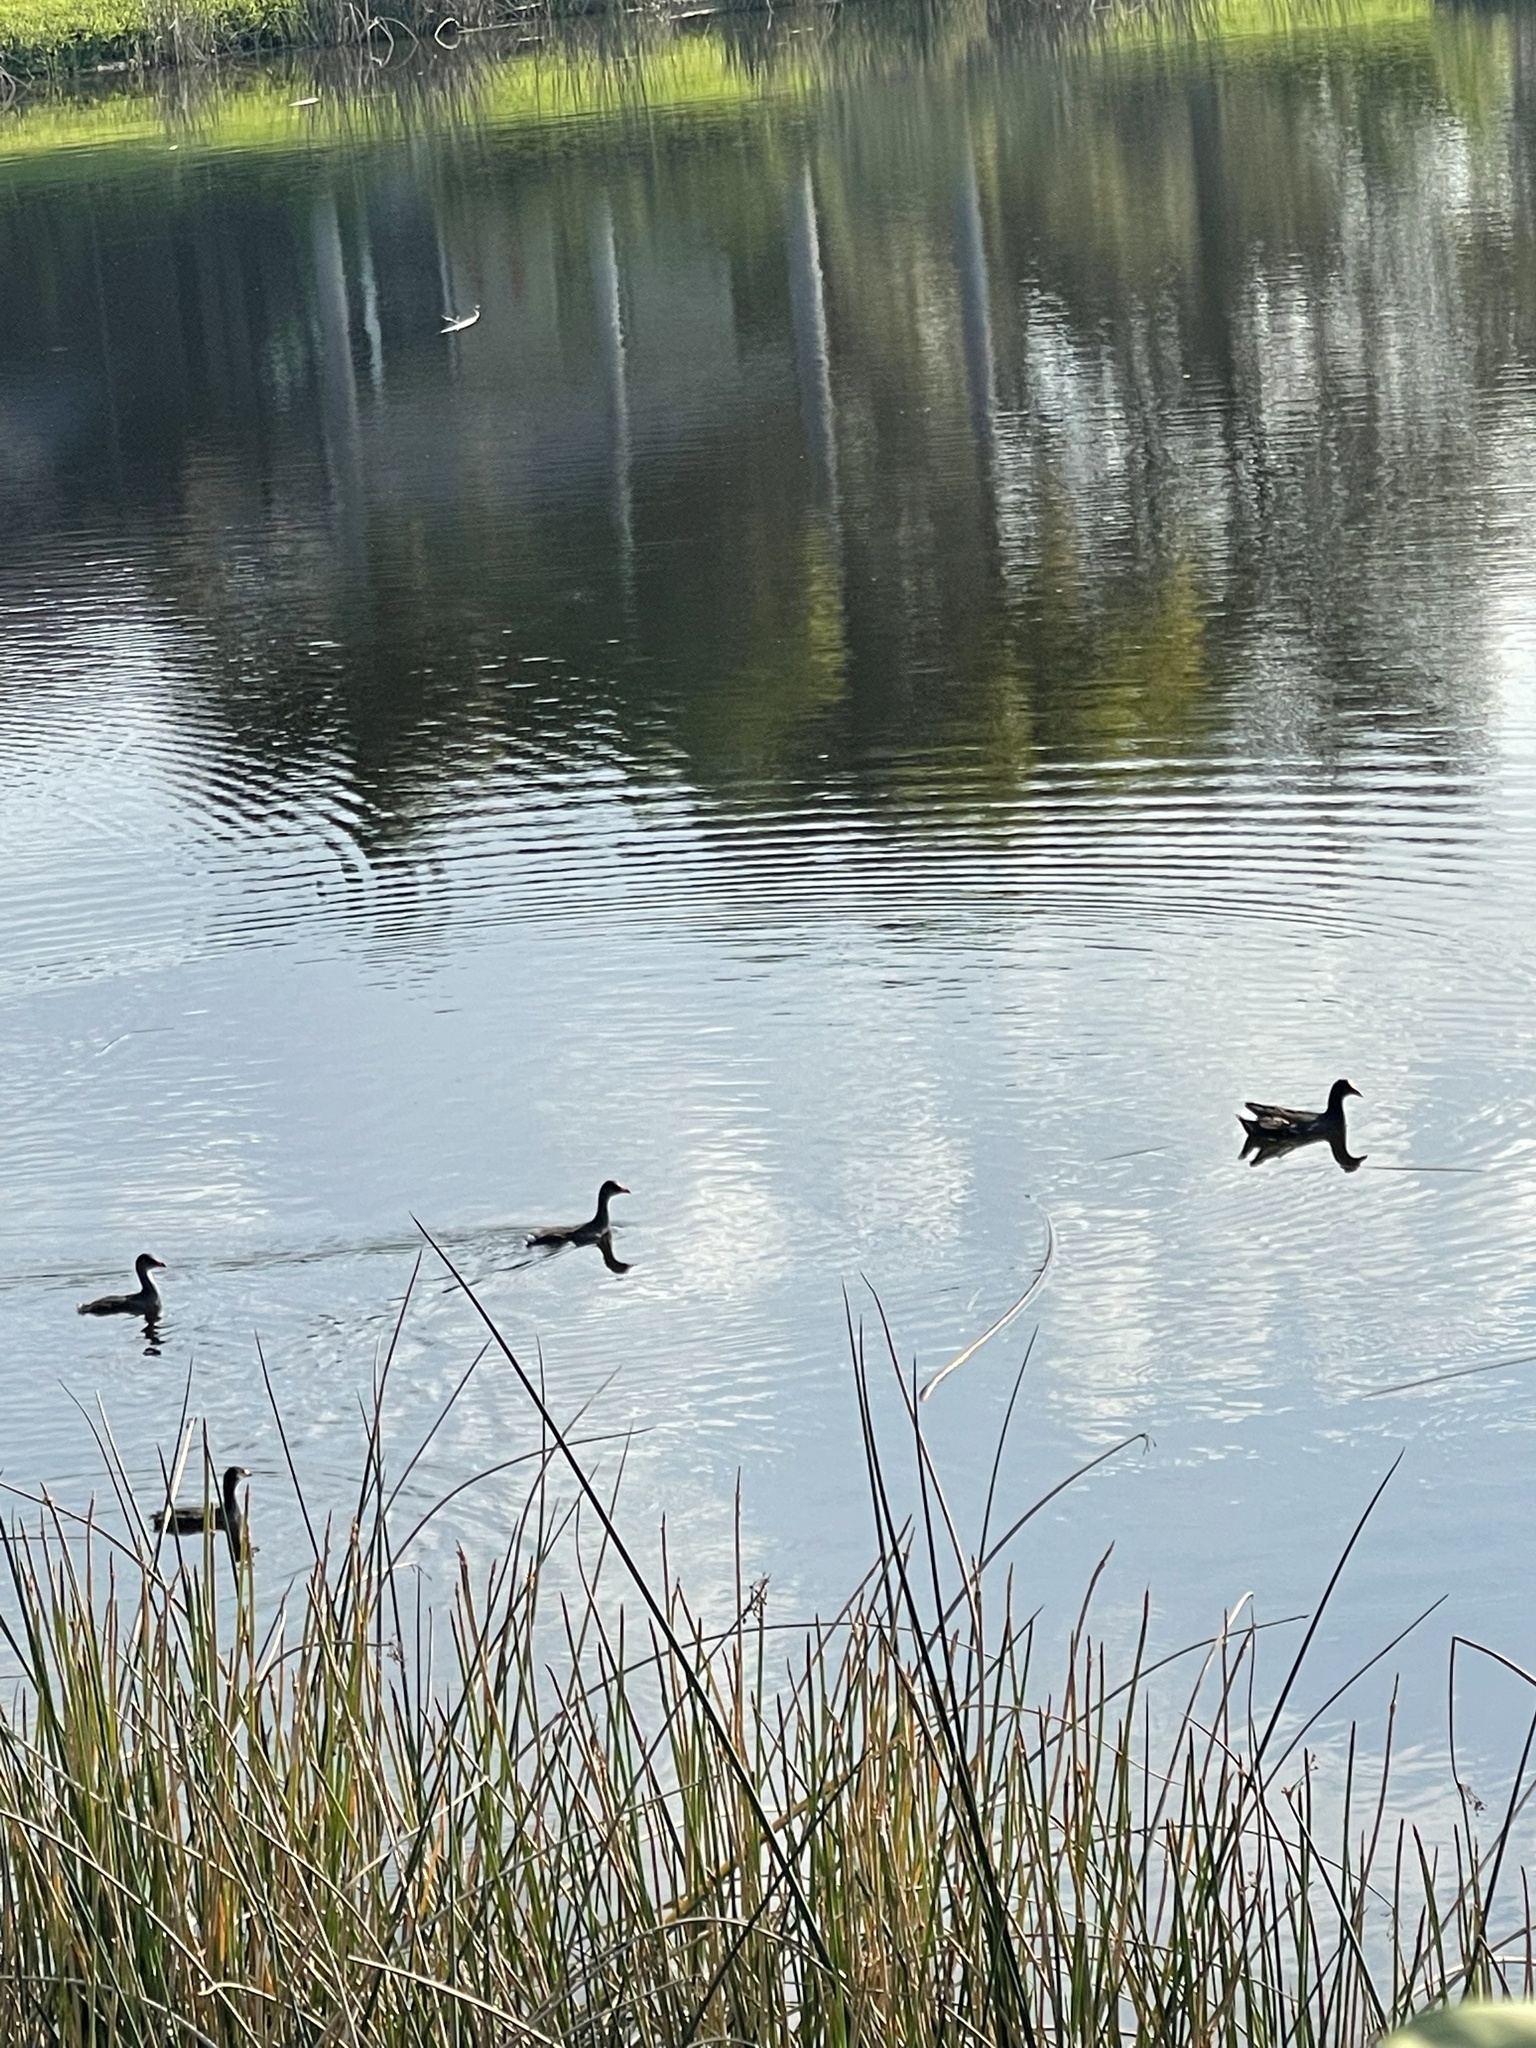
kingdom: Animalia
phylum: Chordata
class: Aves
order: Gruiformes
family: Rallidae
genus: Gallinula
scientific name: Gallinula chloropus
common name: Common moorhen
